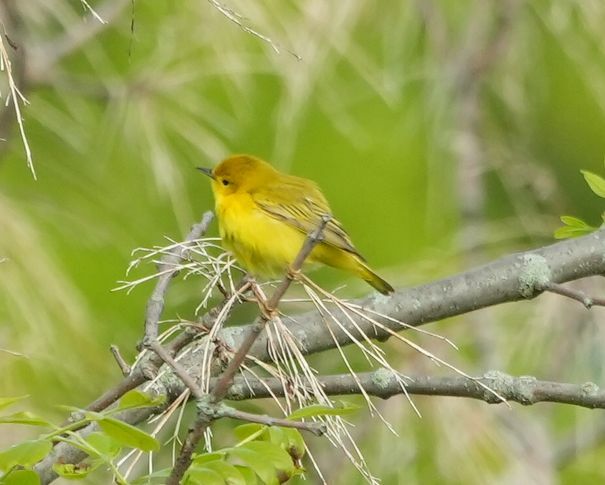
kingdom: Animalia
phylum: Chordata
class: Aves
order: Passeriformes
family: Parulidae
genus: Setophaga
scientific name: Setophaga petechia
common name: Yellow warbler
